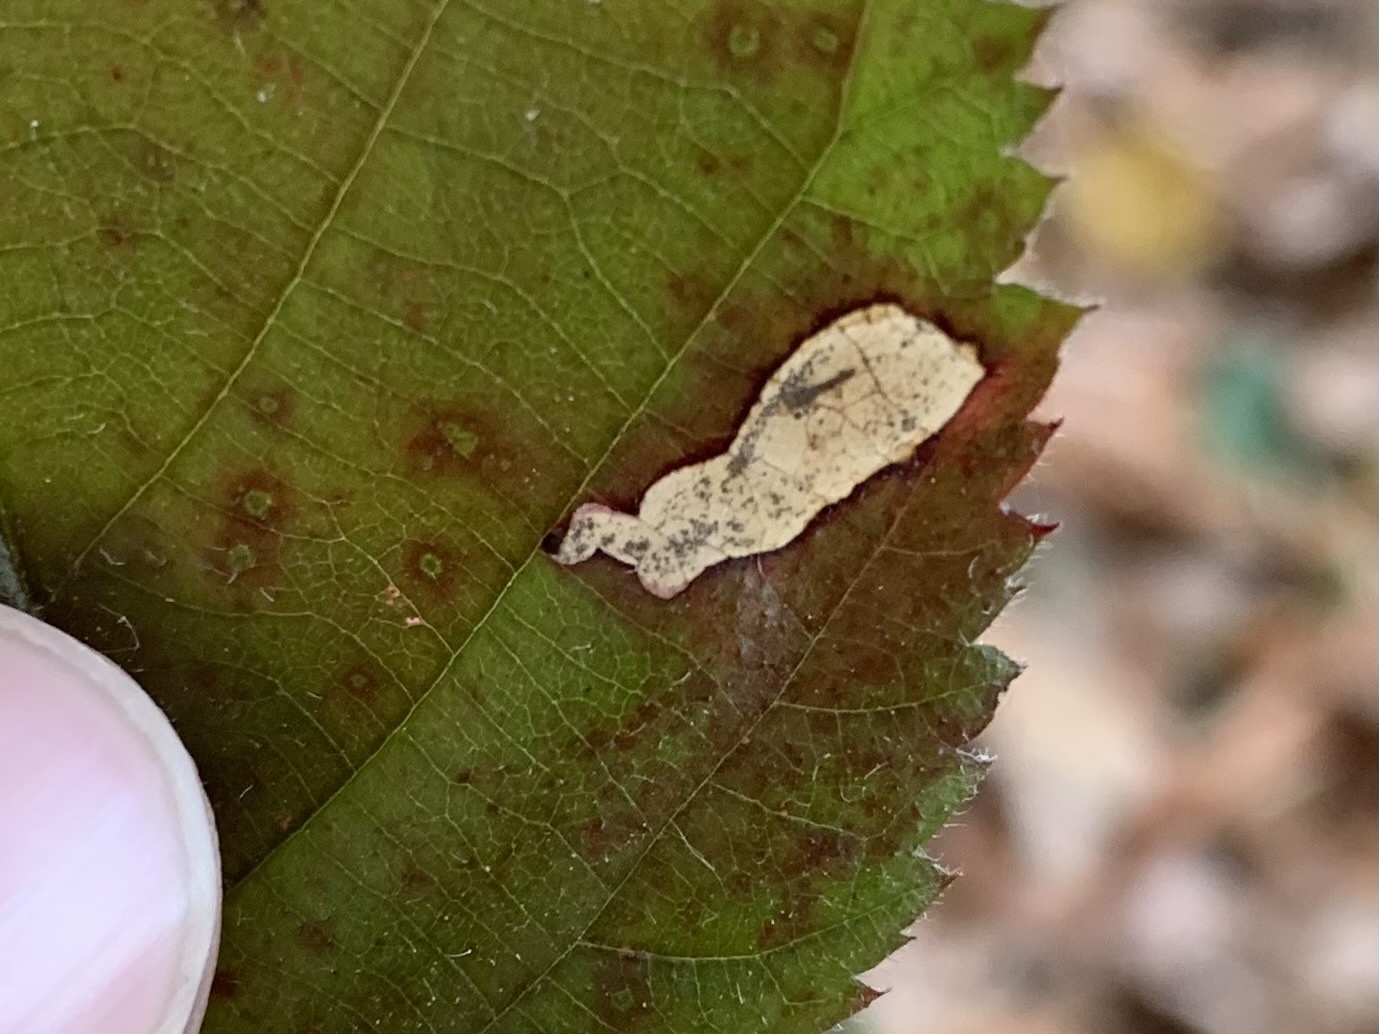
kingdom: Animalia
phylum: Arthropoda
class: Insecta
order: Hymenoptera
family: Tenthredinidae
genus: Metallus
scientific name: Metallus rohweri
